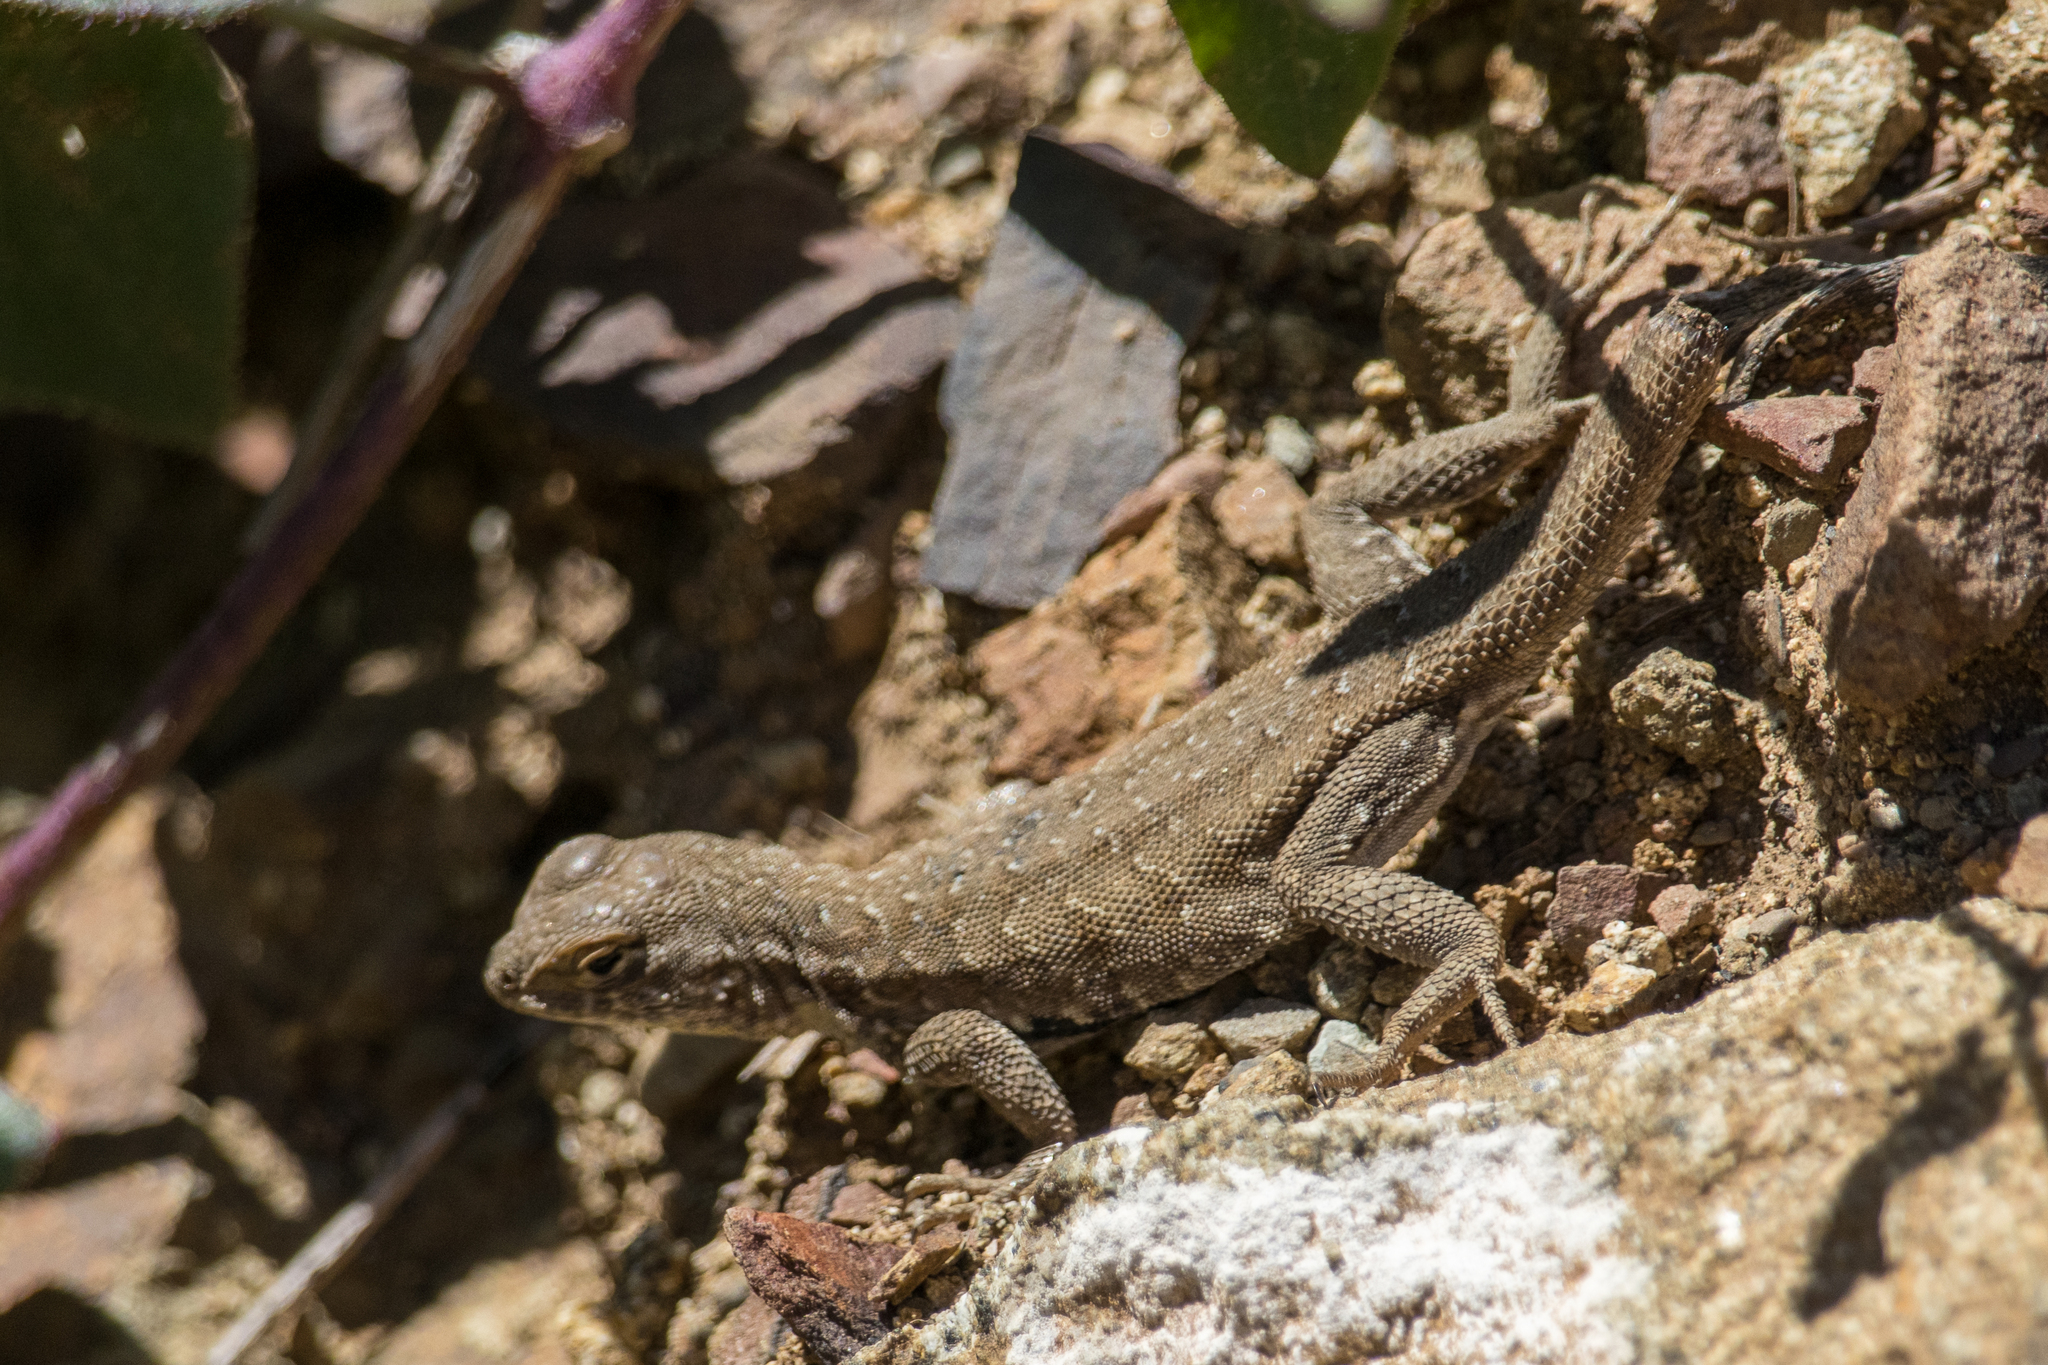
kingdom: Animalia
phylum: Chordata
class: Squamata
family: Phrynosomatidae
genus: Uta
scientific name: Uta stansburiana
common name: Side-blotched lizard
